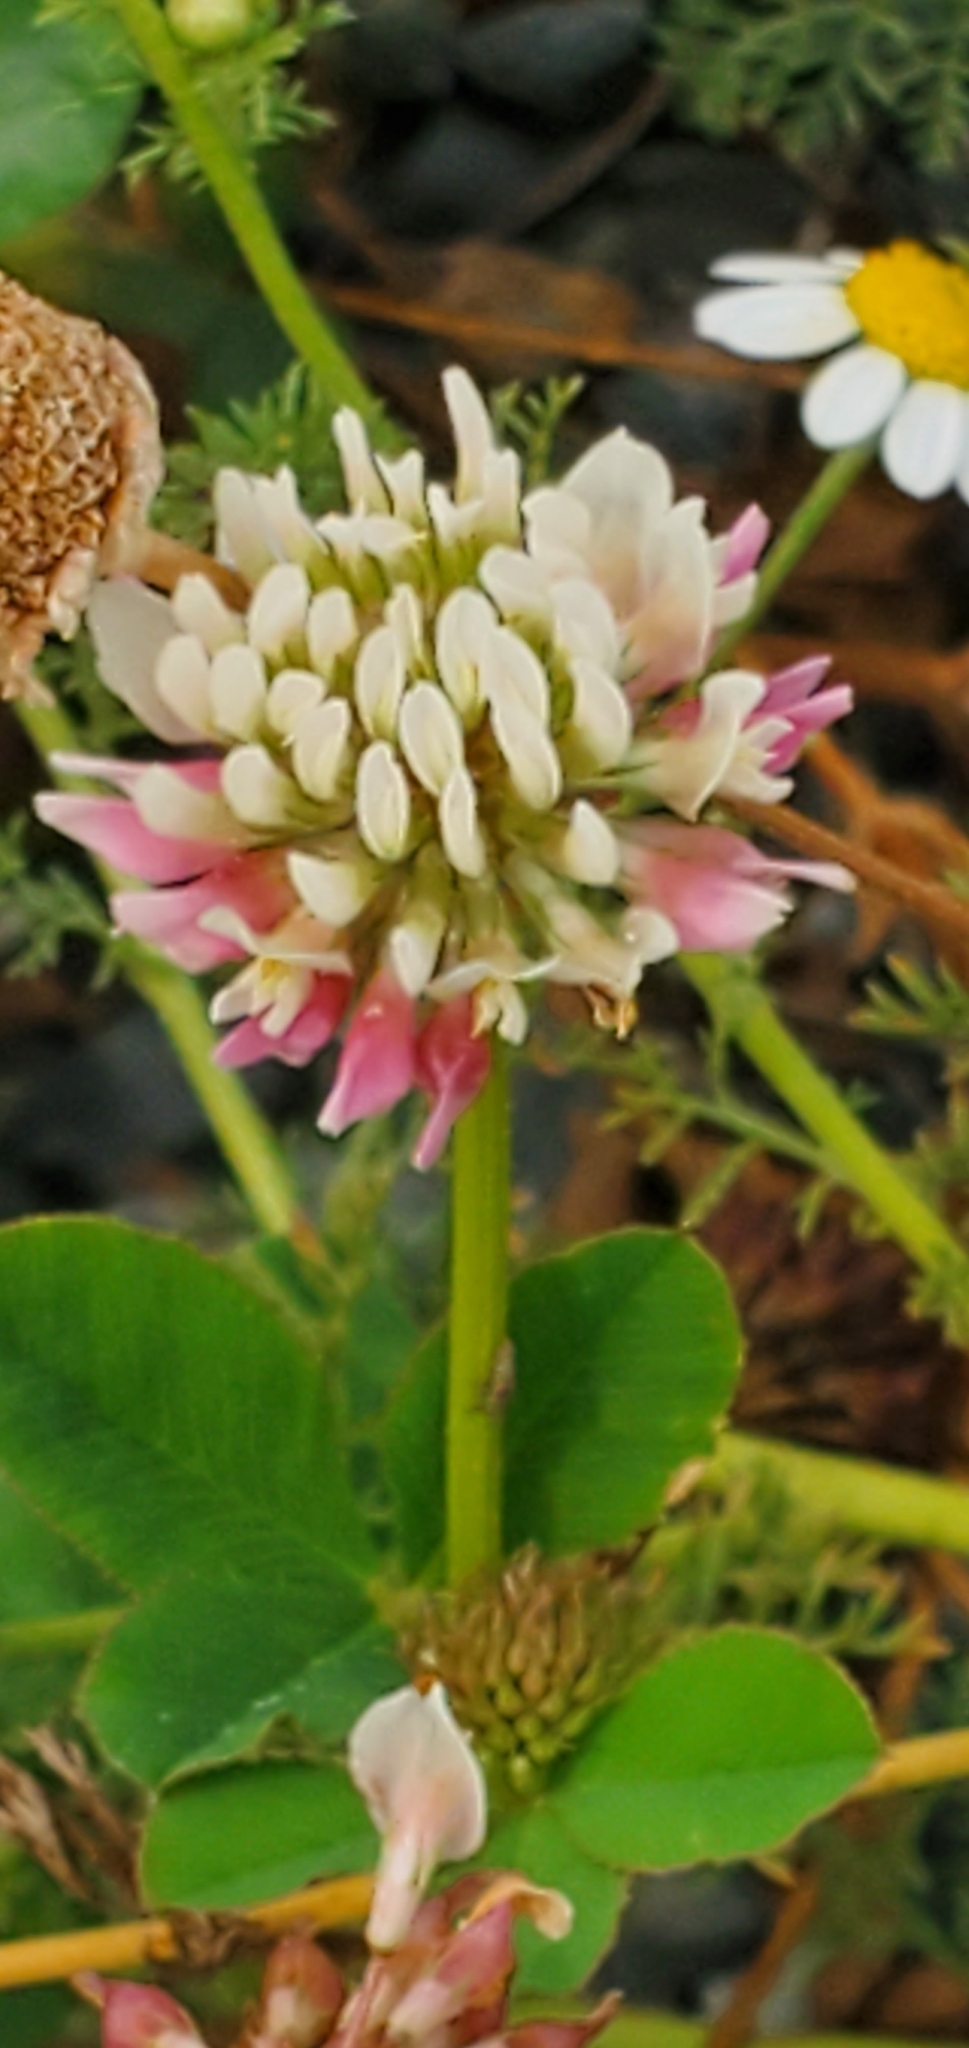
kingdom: Plantae
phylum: Tracheophyta
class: Magnoliopsida
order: Fabales
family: Fabaceae
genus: Trifolium
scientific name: Trifolium hybridum
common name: Alsike clover
